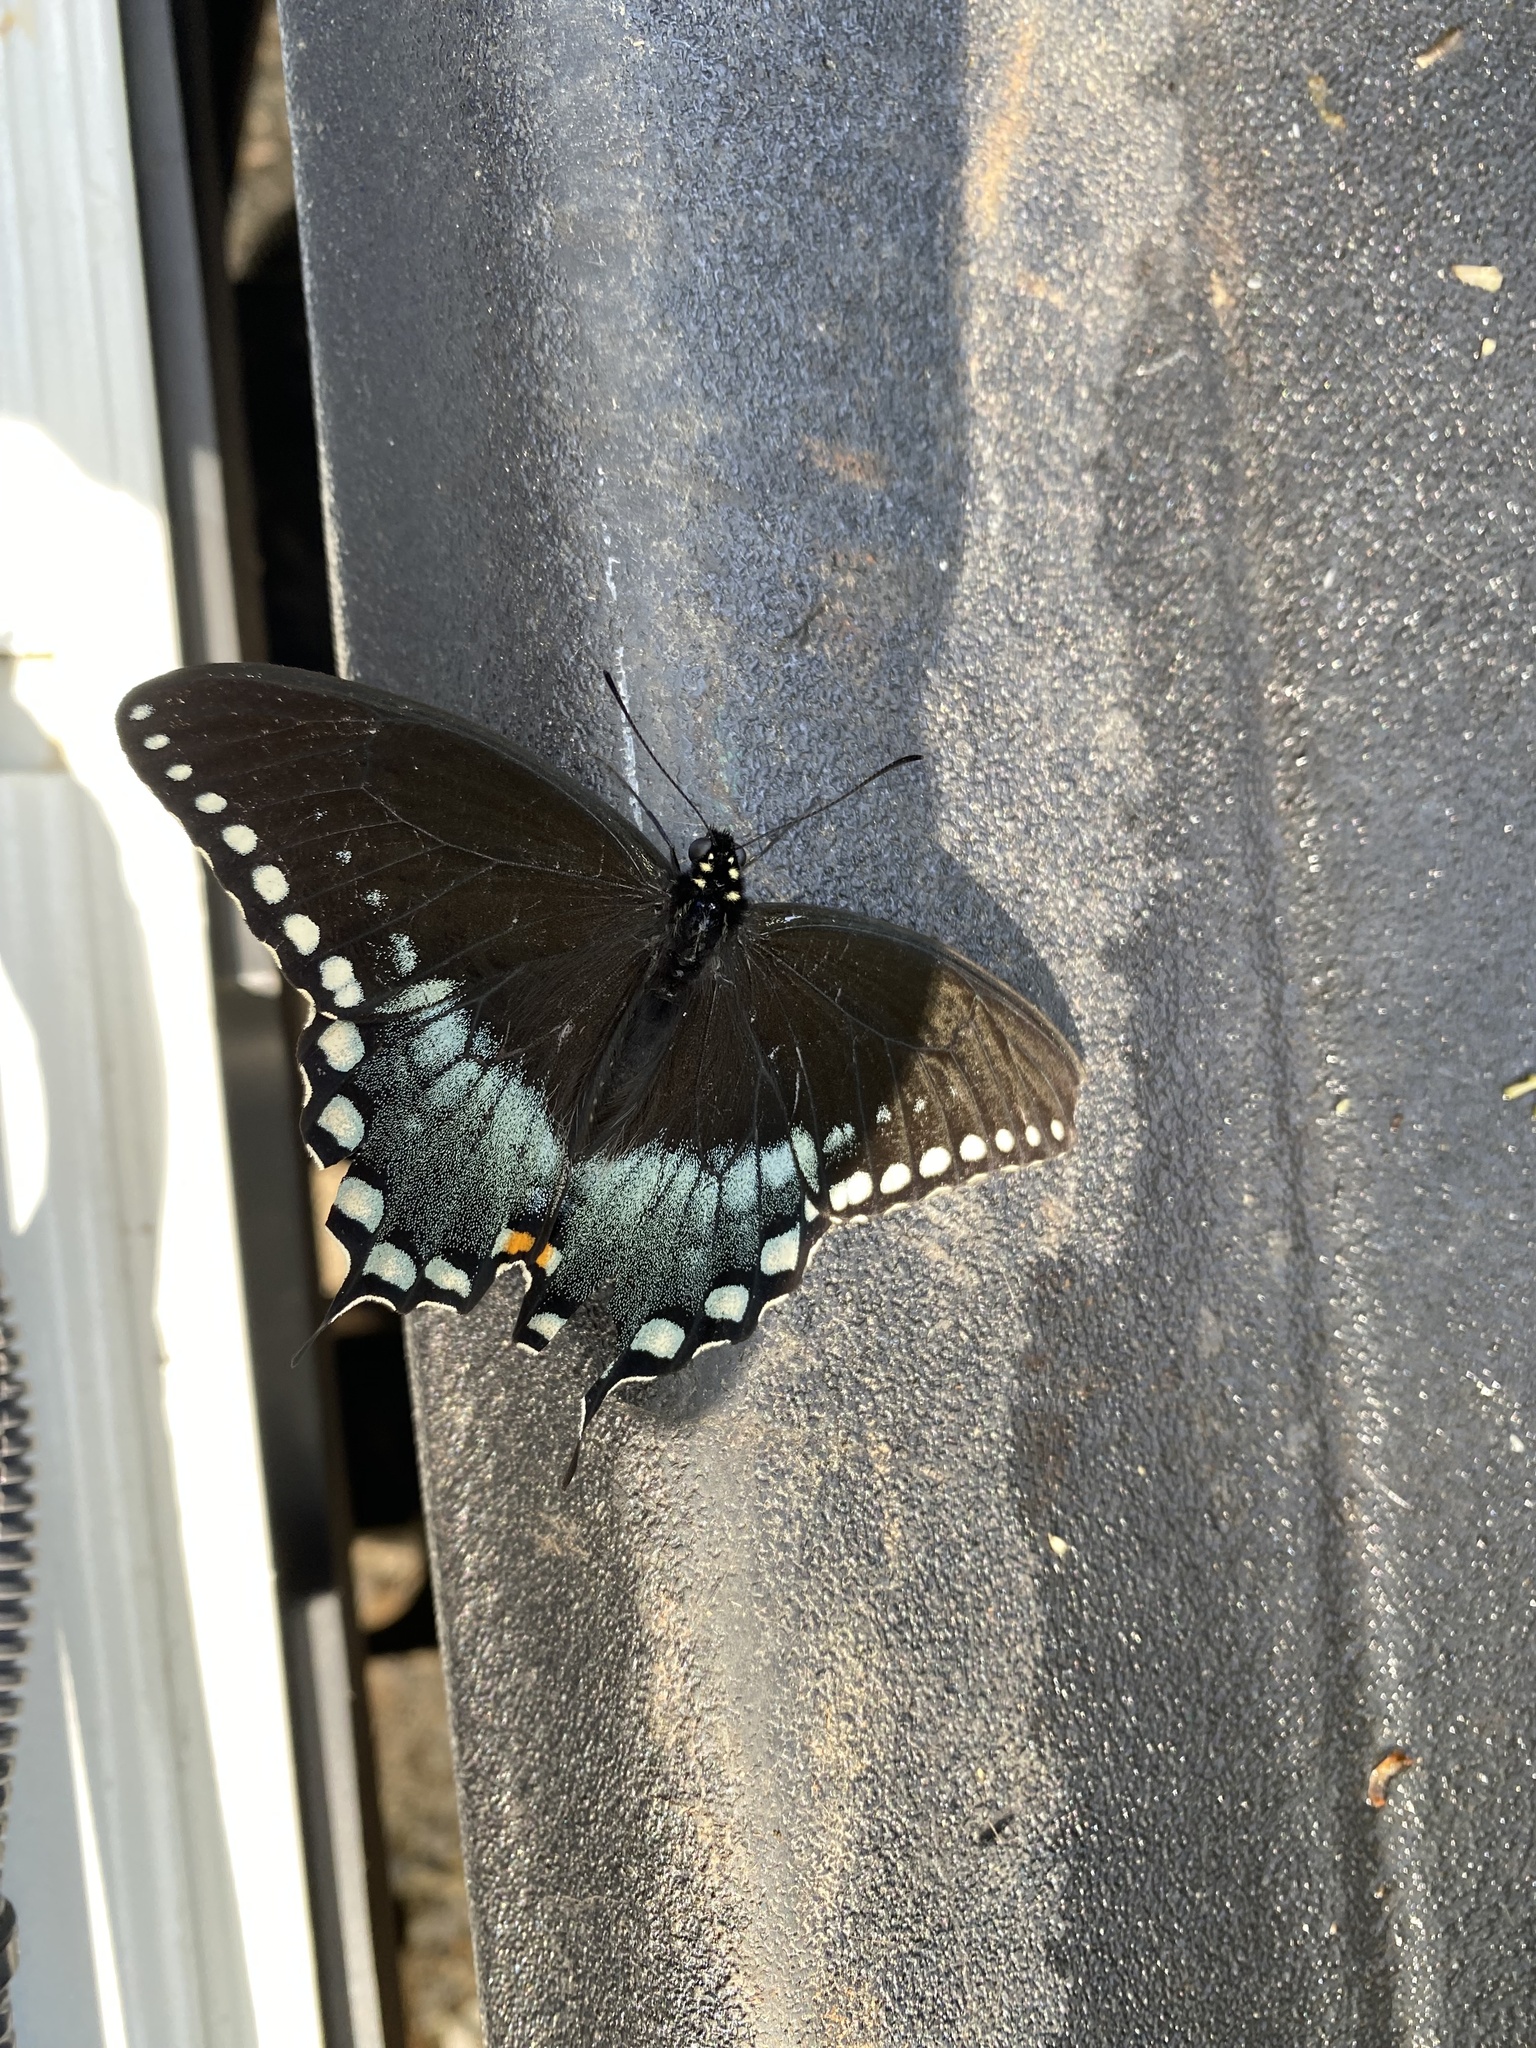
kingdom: Animalia
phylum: Arthropoda
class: Insecta
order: Lepidoptera
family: Papilionidae
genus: Papilio
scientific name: Papilio troilus
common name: Spicebush swallowtail
